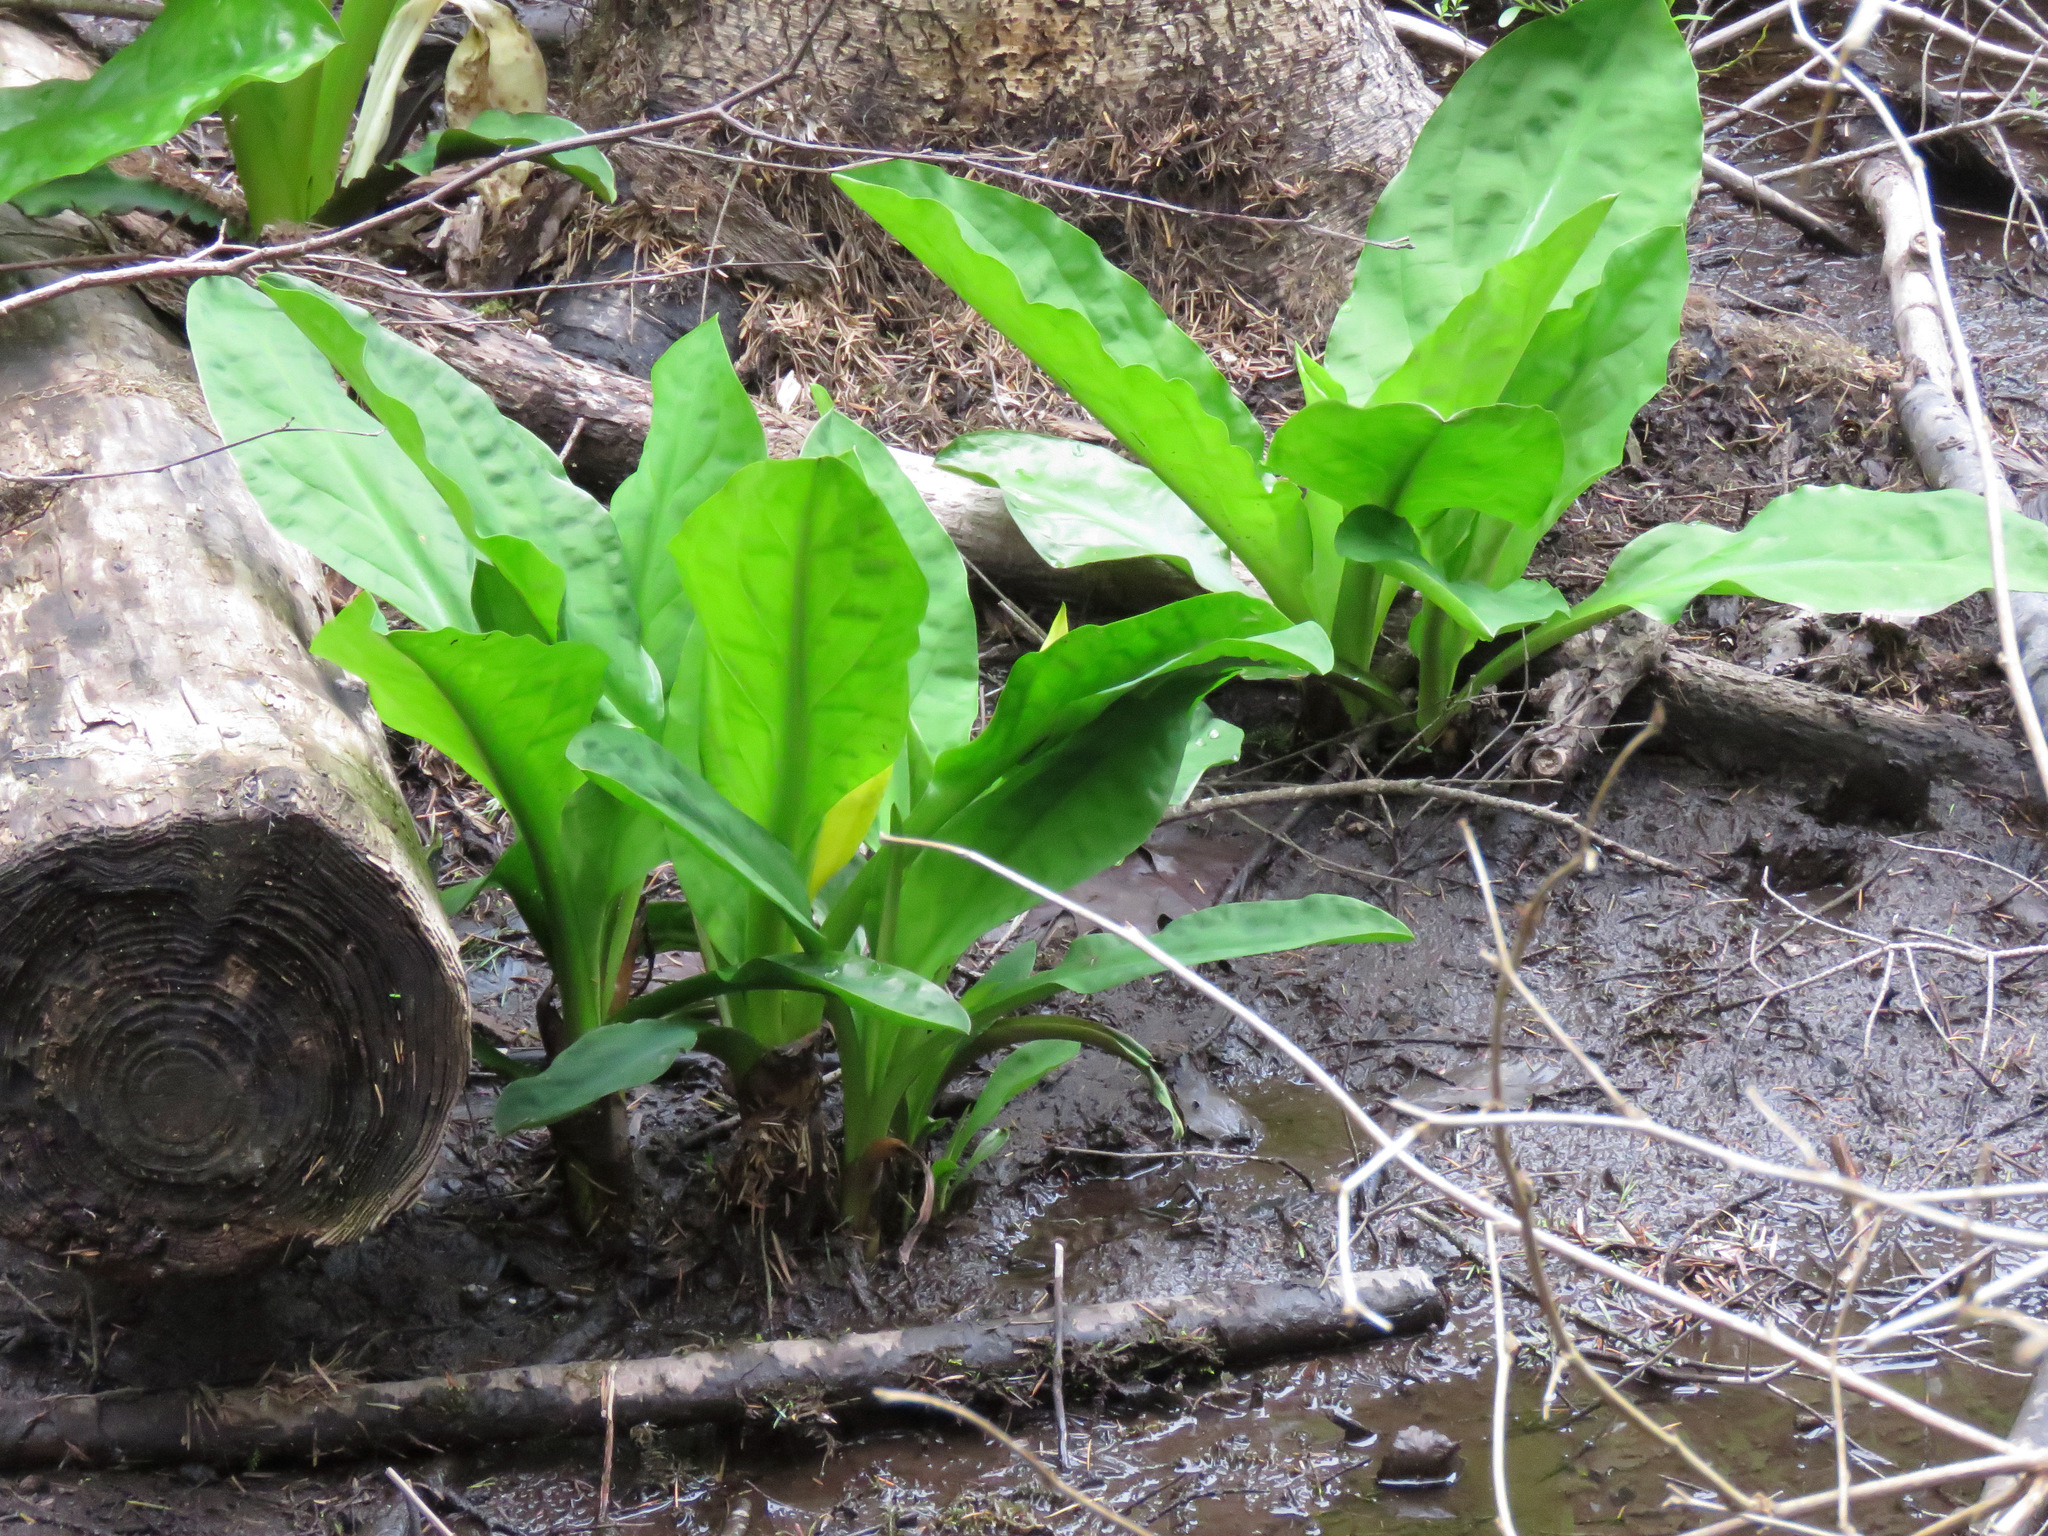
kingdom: Plantae
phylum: Tracheophyta
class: Liliopsida
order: Alismatales
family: Araceae
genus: Lysichiton
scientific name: Lysichiton americanus
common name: American skunk cabbage
